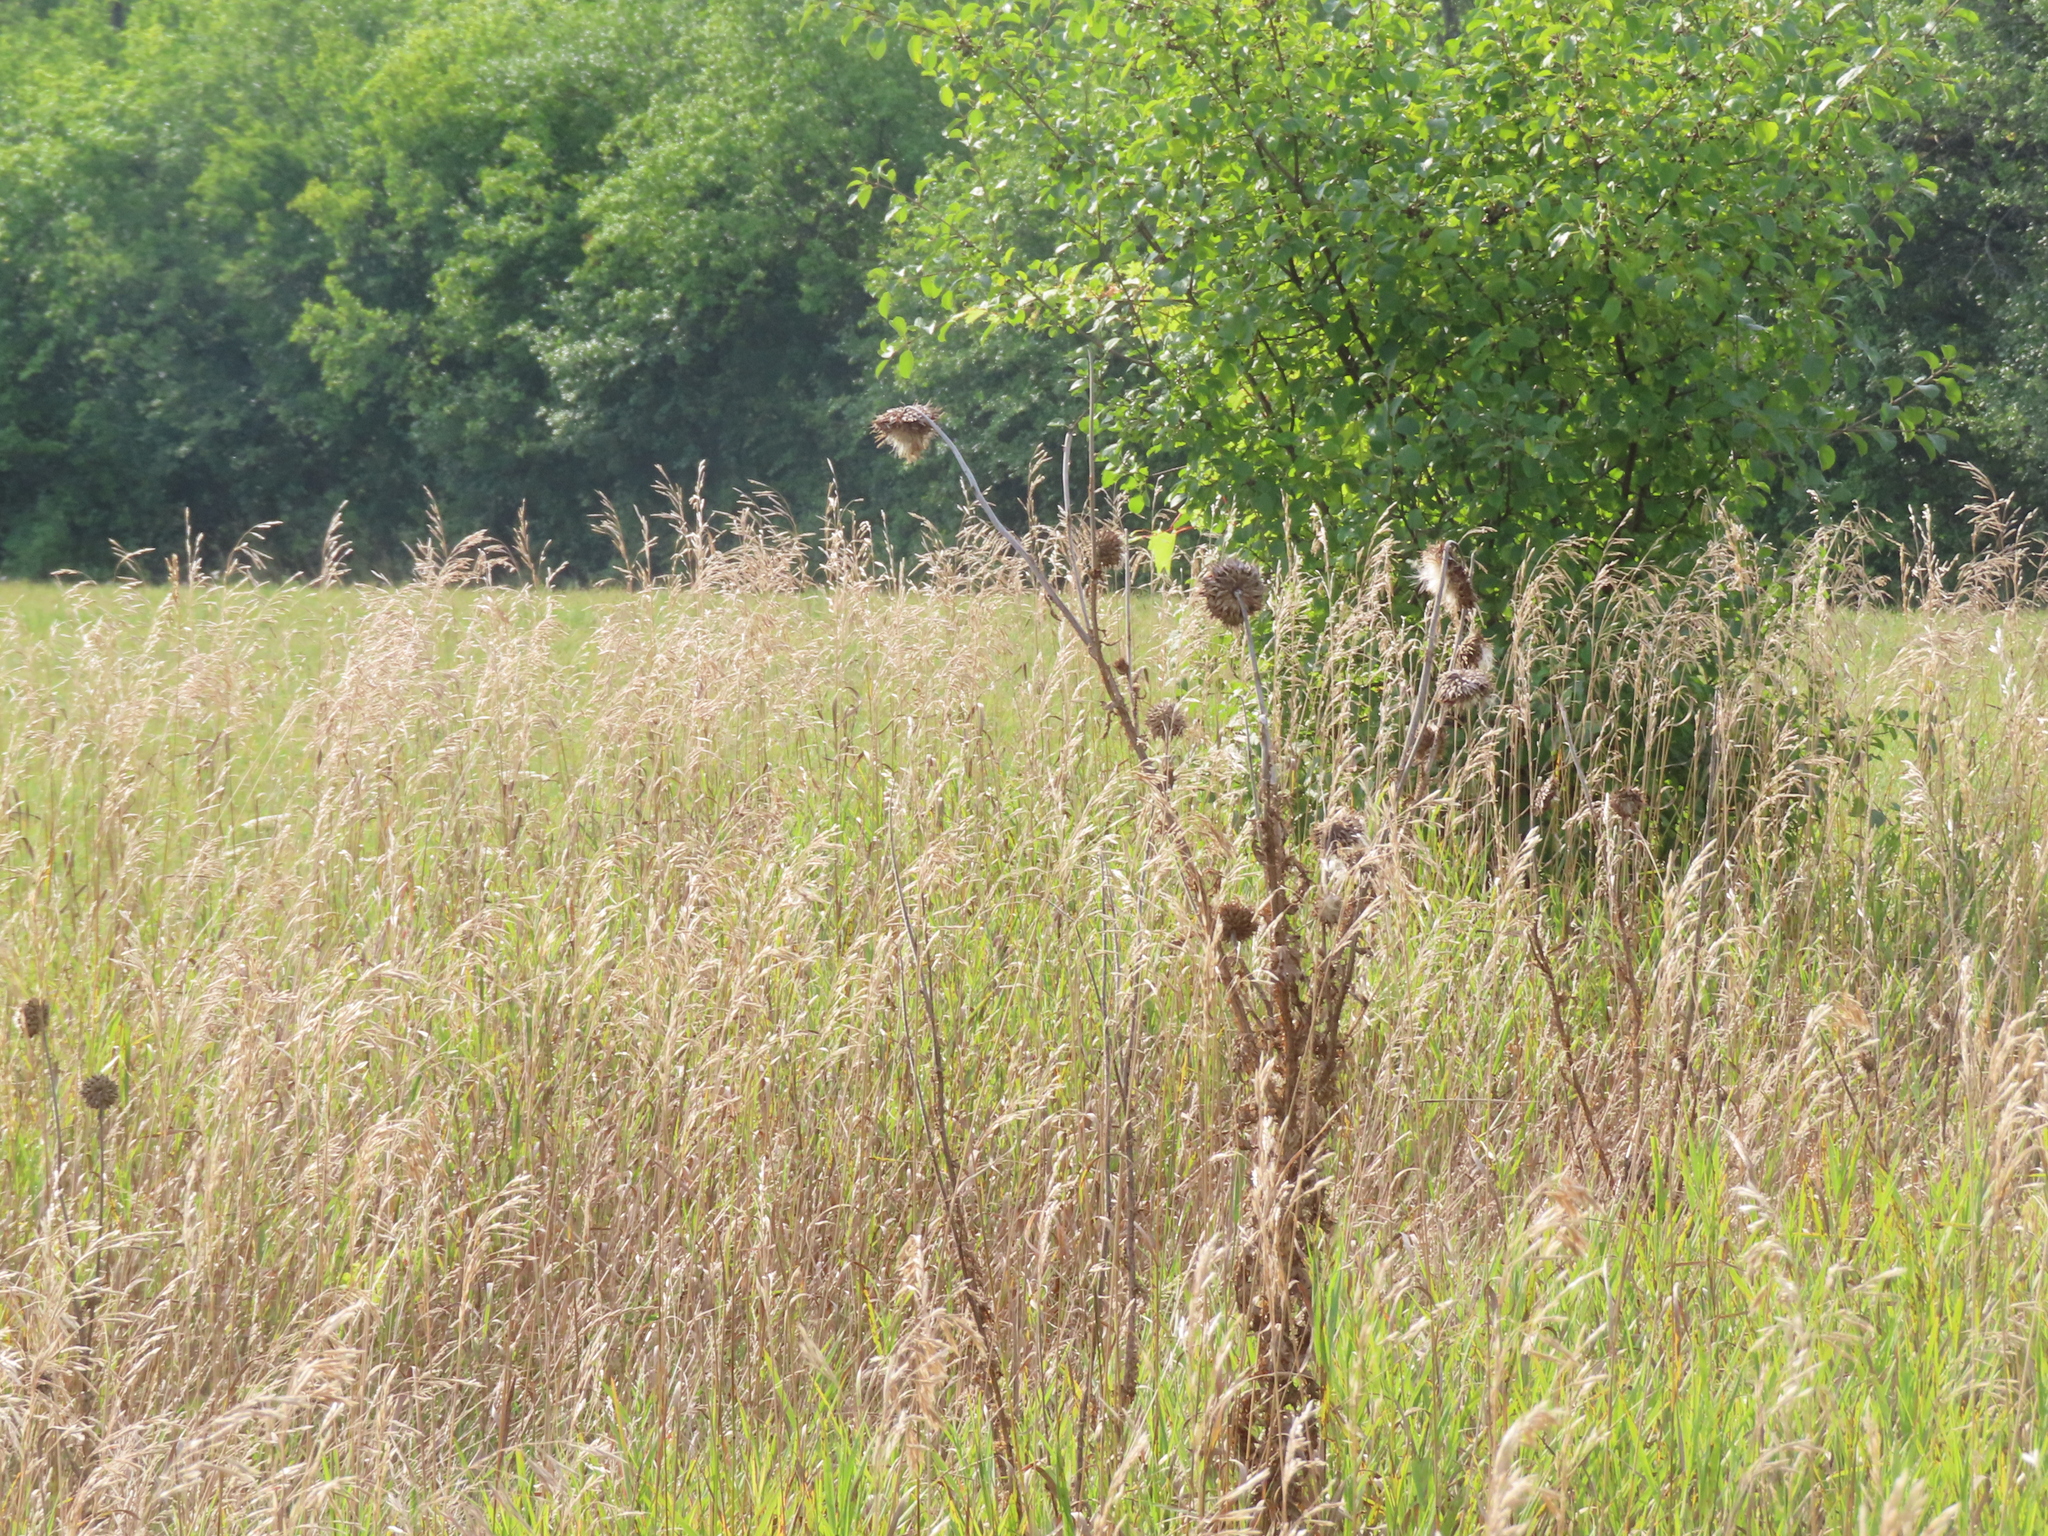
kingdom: Plantae
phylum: Tracheophyta
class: Magnoliopsida
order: Asterales
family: Asteraceae
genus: Carduus
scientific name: Carduus nutans
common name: Musk thistle
